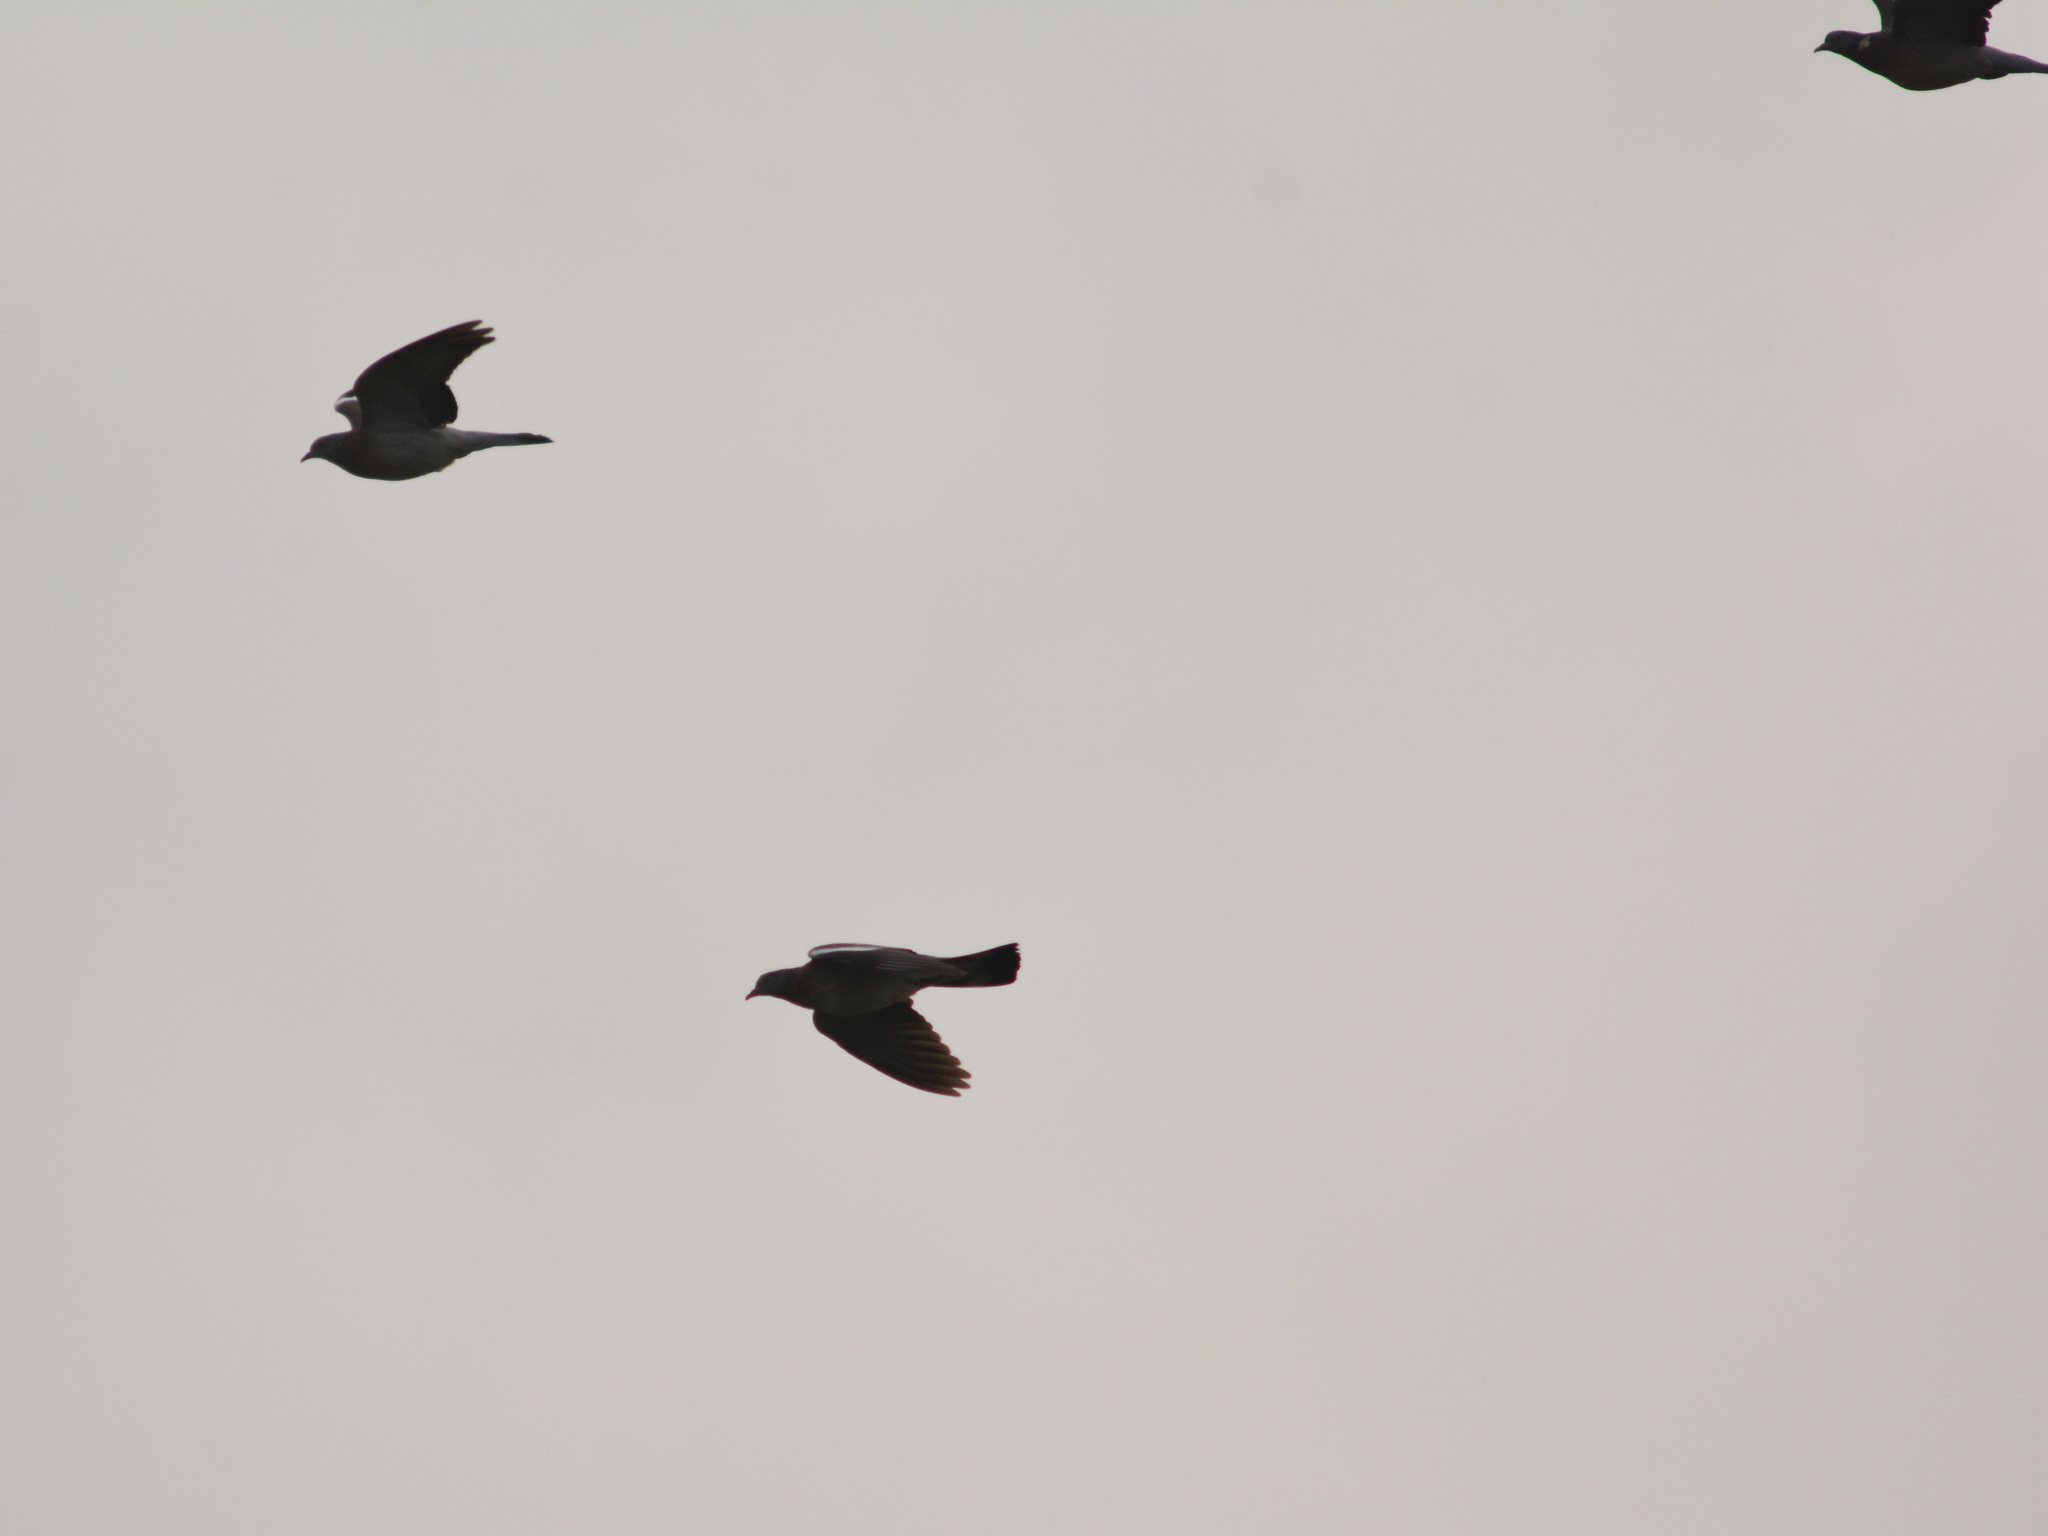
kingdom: Animalia
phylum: Chordata
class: Aves
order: Columbiformes
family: Columbidae
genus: Columba
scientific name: Columba palumbus
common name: Common wood pigeon
